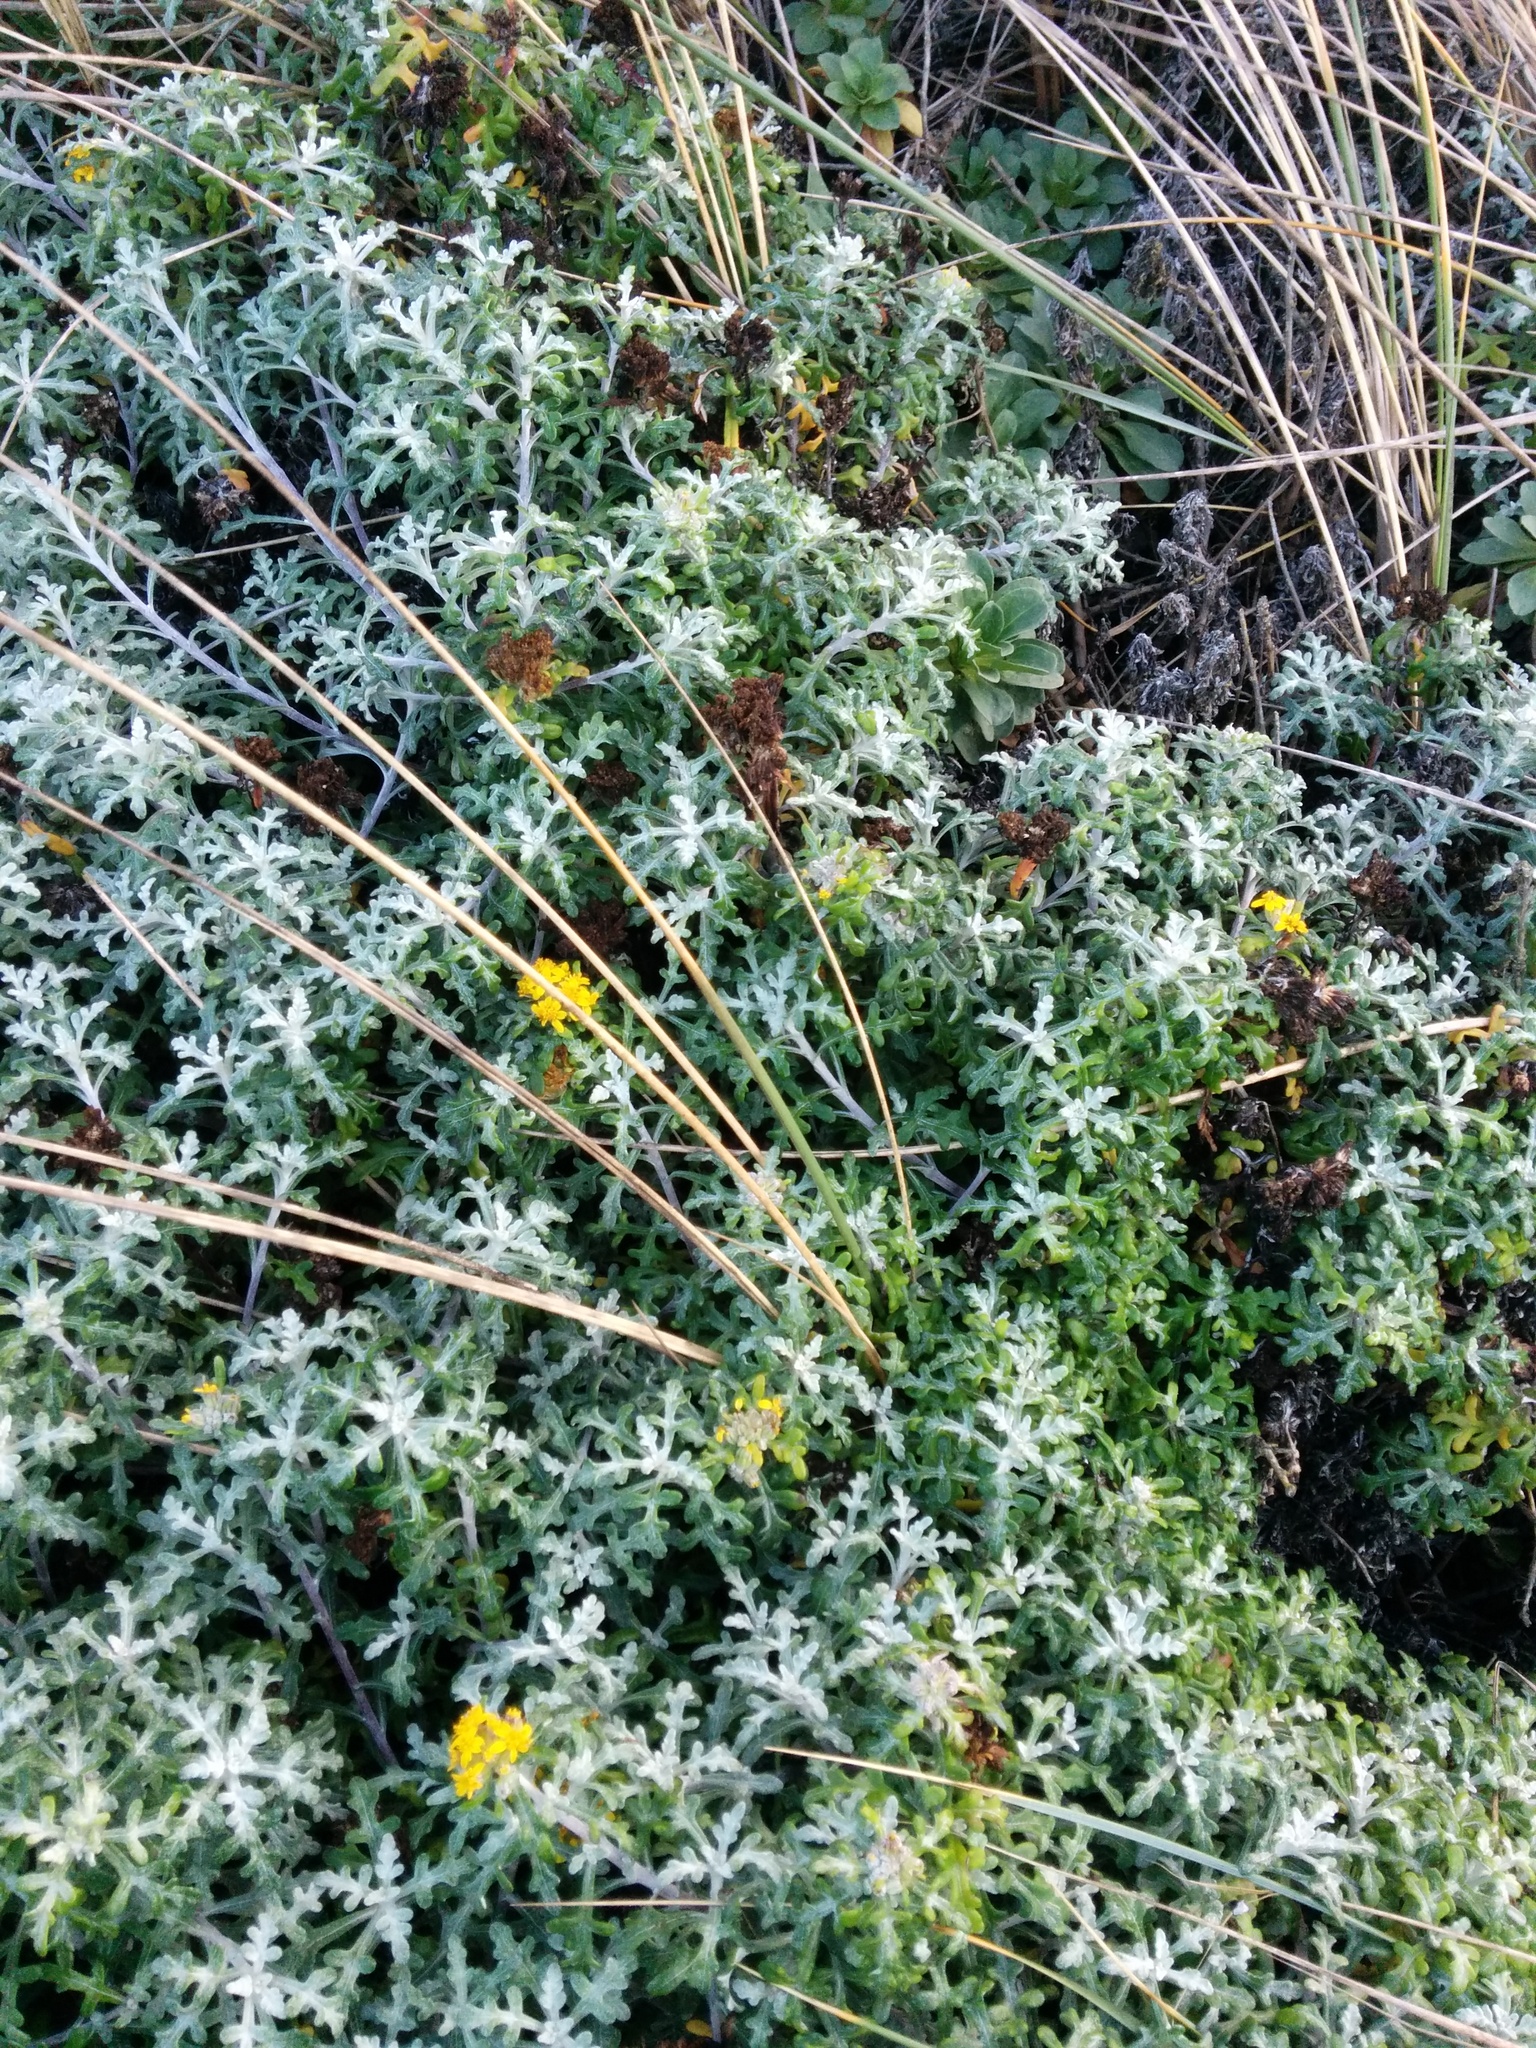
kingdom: Plantae
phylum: Tracheophyta
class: Magnoliopsida
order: Asterales
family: Asteraceae
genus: Eriophyllum
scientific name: Eriophyllum staechadifolium
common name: Lizardtail
